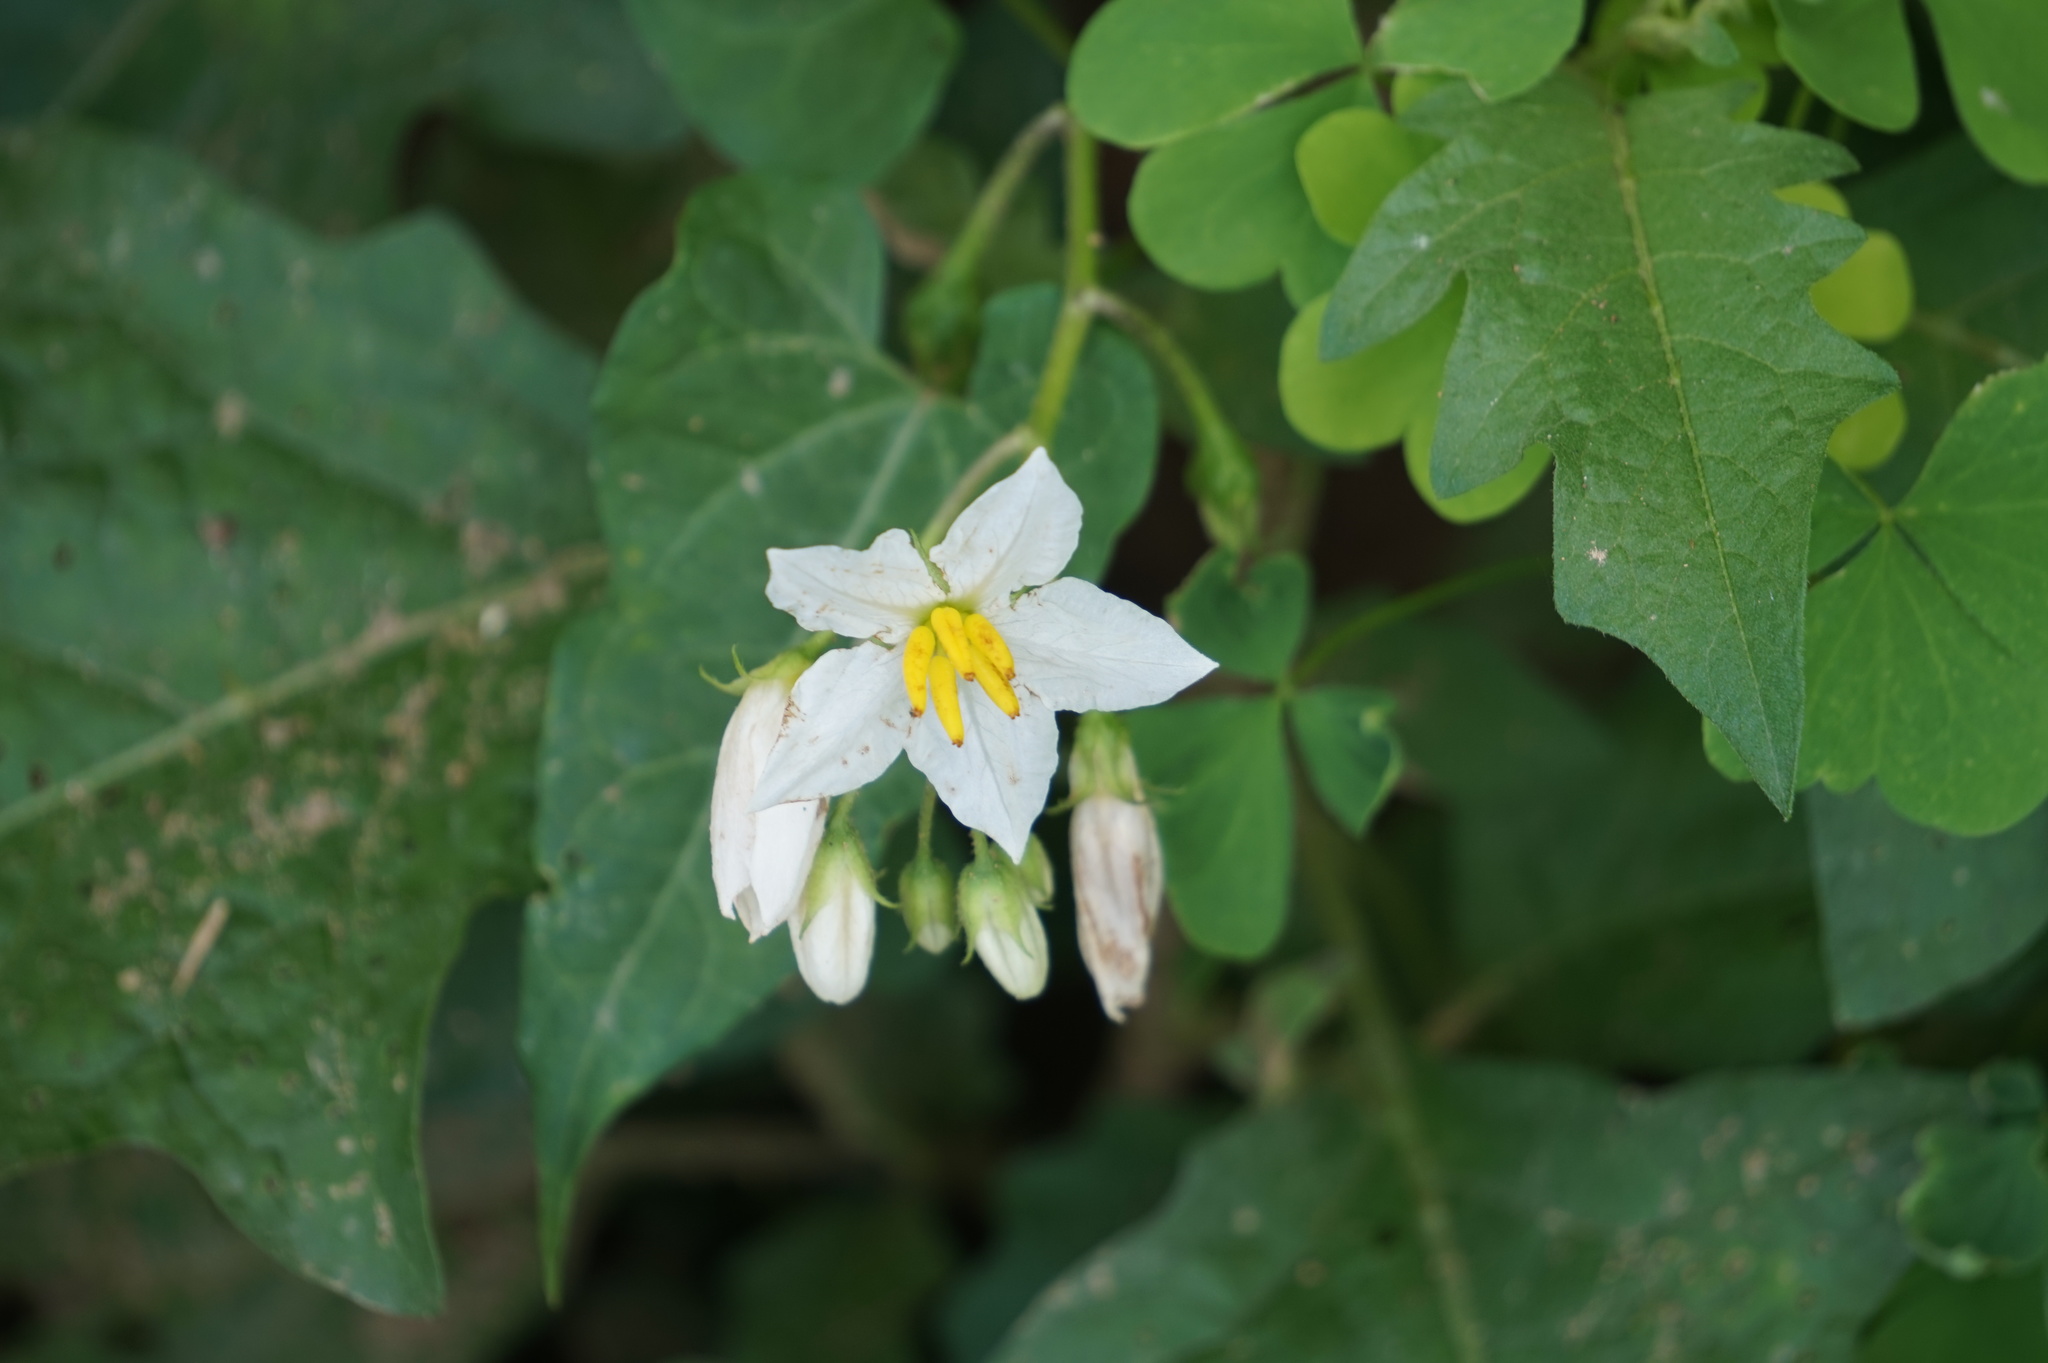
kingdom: Plantae
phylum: Tracheophyta
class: Magnoliopsida
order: Solanales
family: Solanaceae
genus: Solanum
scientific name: Solanum carolinense
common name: Horse-nettle
